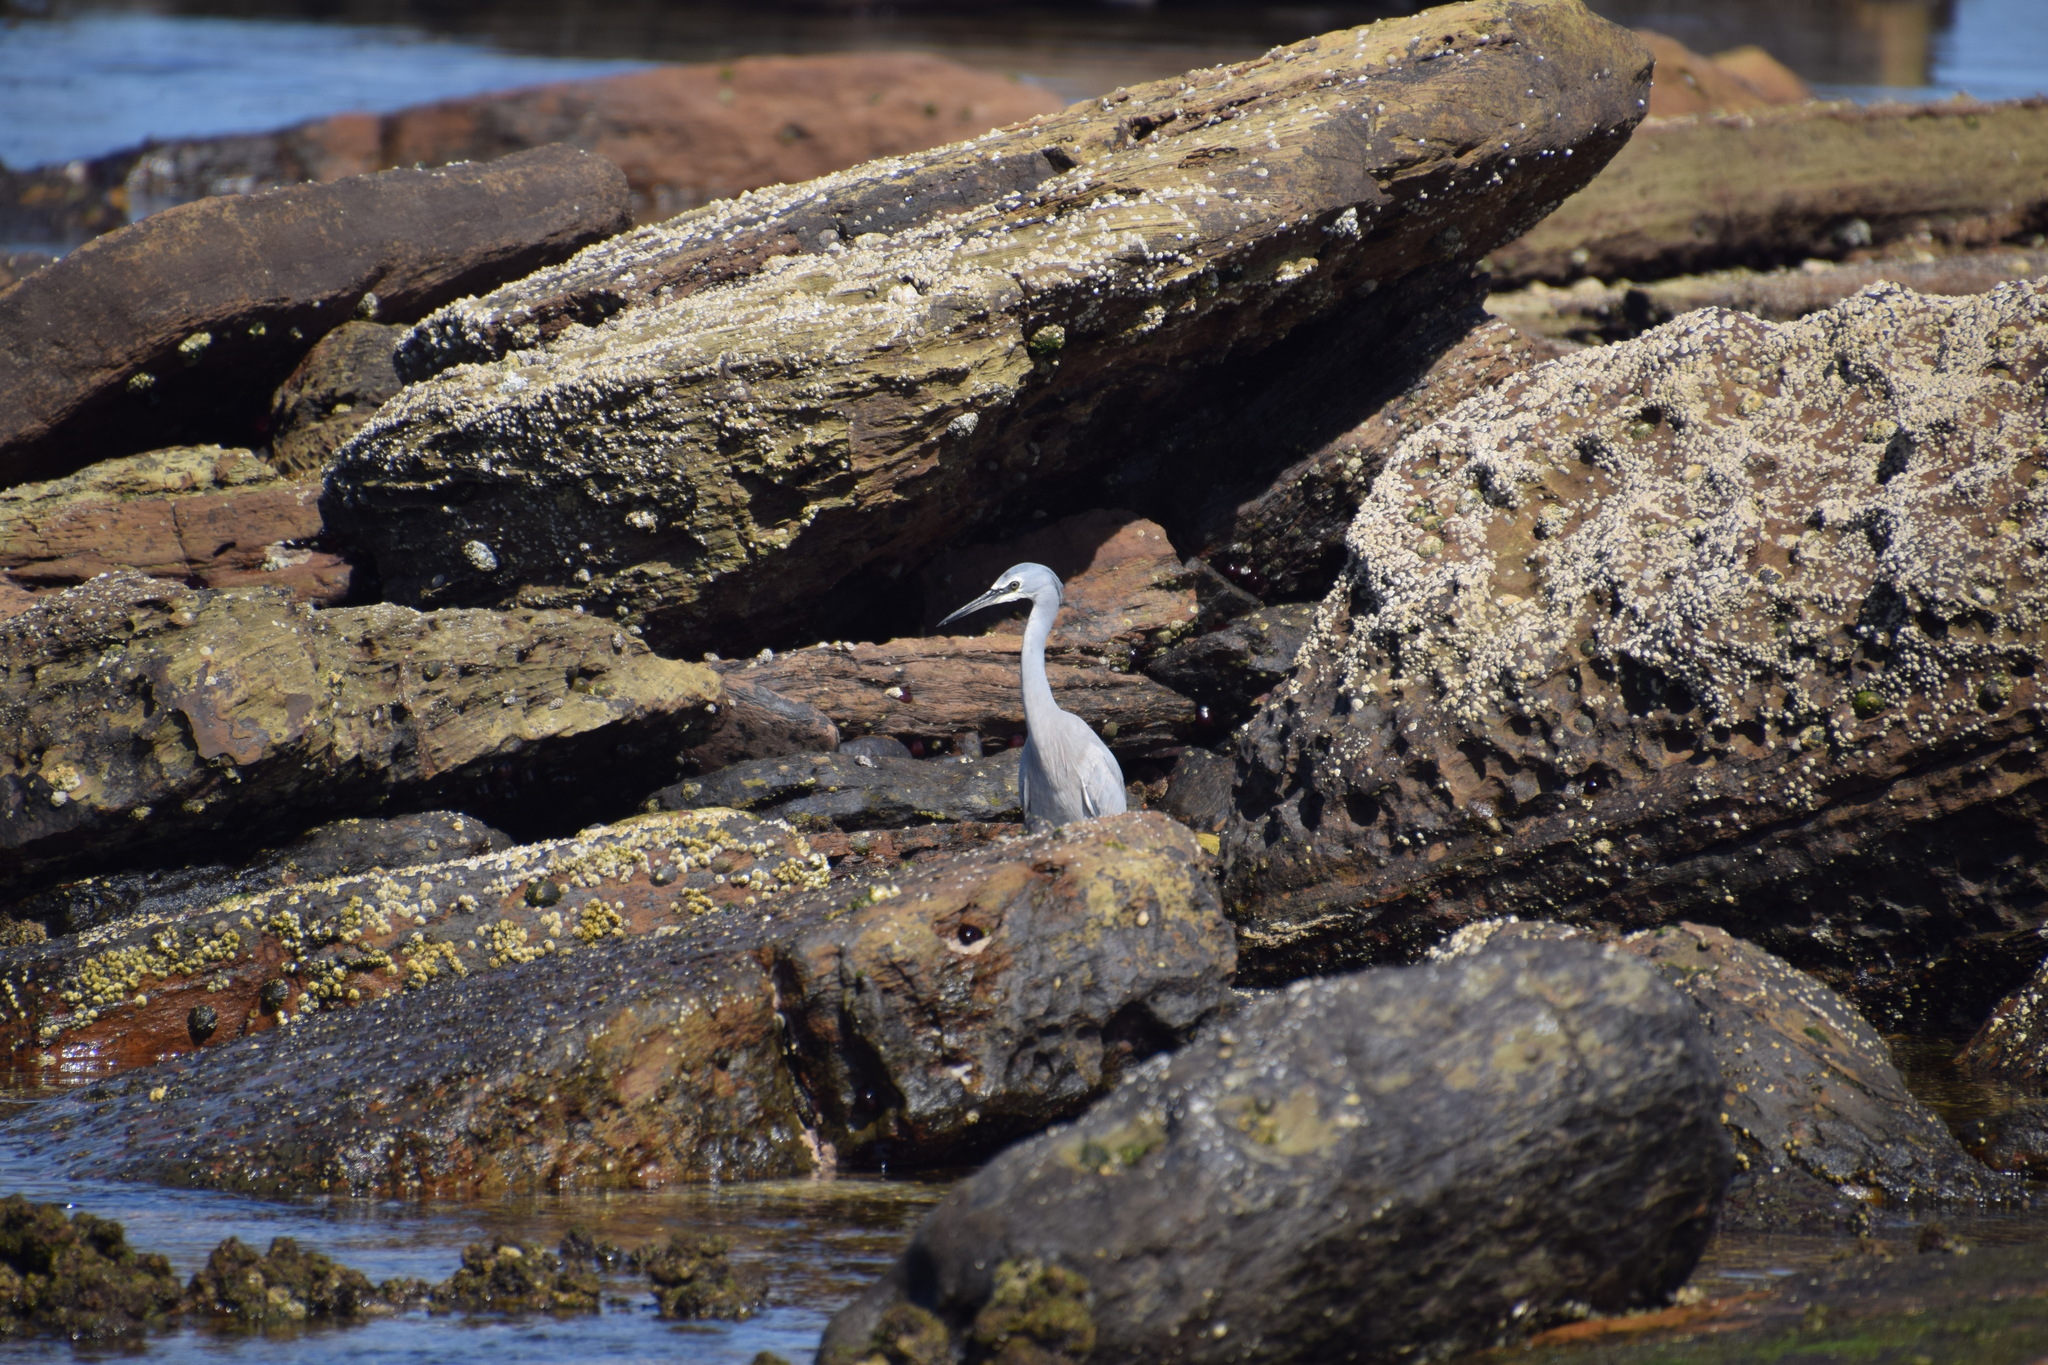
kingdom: Animalia
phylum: Chordata
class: Aves
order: Pelecaniformes
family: Ardeidae
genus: Egretta
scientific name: Egretta novaehollandiae
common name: White-faced heron
